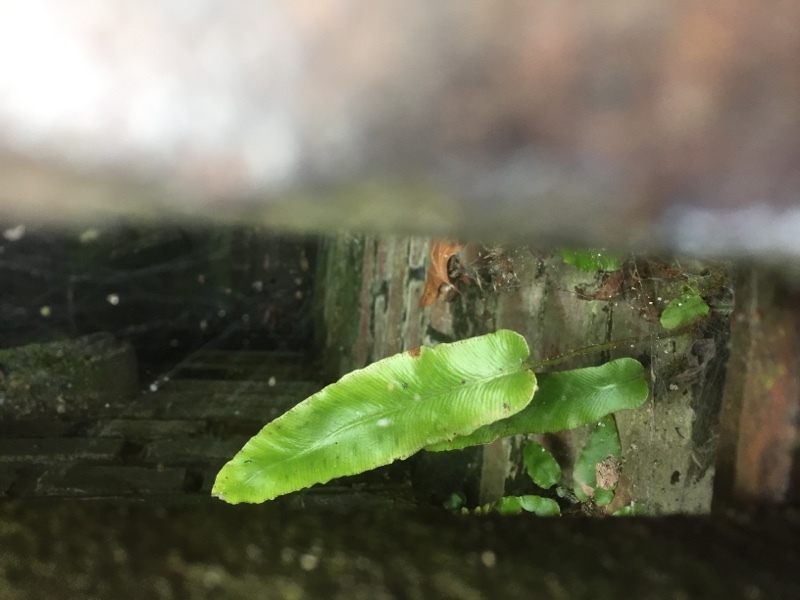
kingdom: Plantae
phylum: Tracheophyta
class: Polypodiopsida
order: Polypodiales
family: Aspleniaceae
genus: Asplenium
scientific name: Asplenium scolopendrium
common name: Hart's-tongue fern
